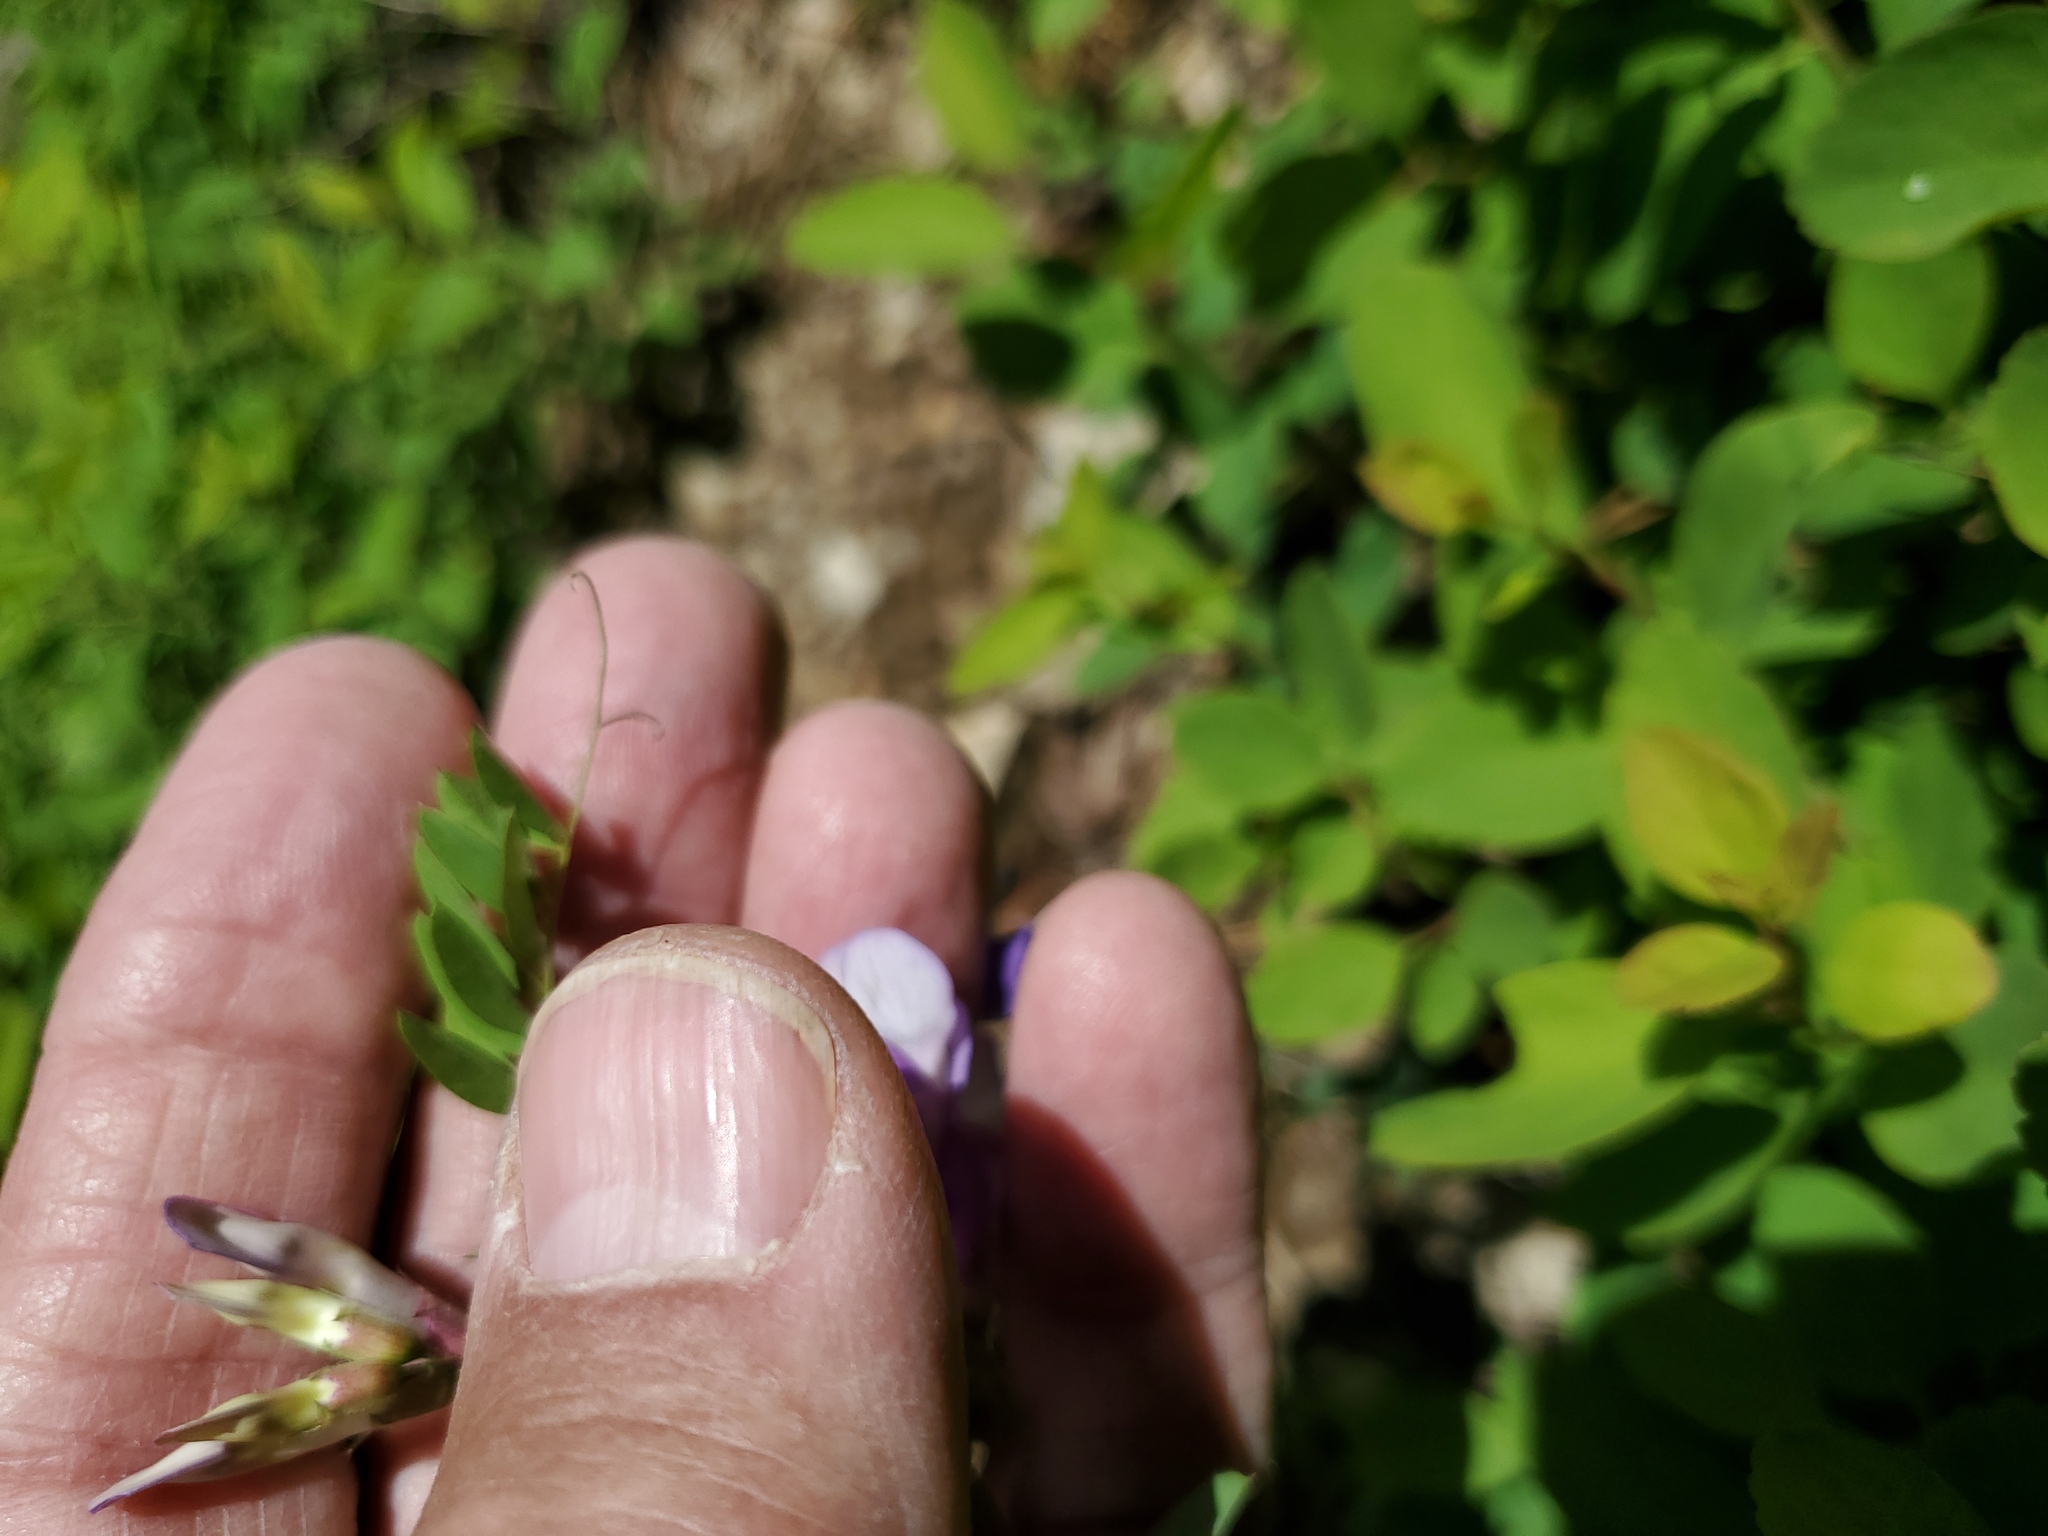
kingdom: Plantae
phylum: Tracheophyta
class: Magnoliopsida
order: Fabales
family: Fabaceae
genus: Vicia
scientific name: Vicia americana
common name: American vetch
